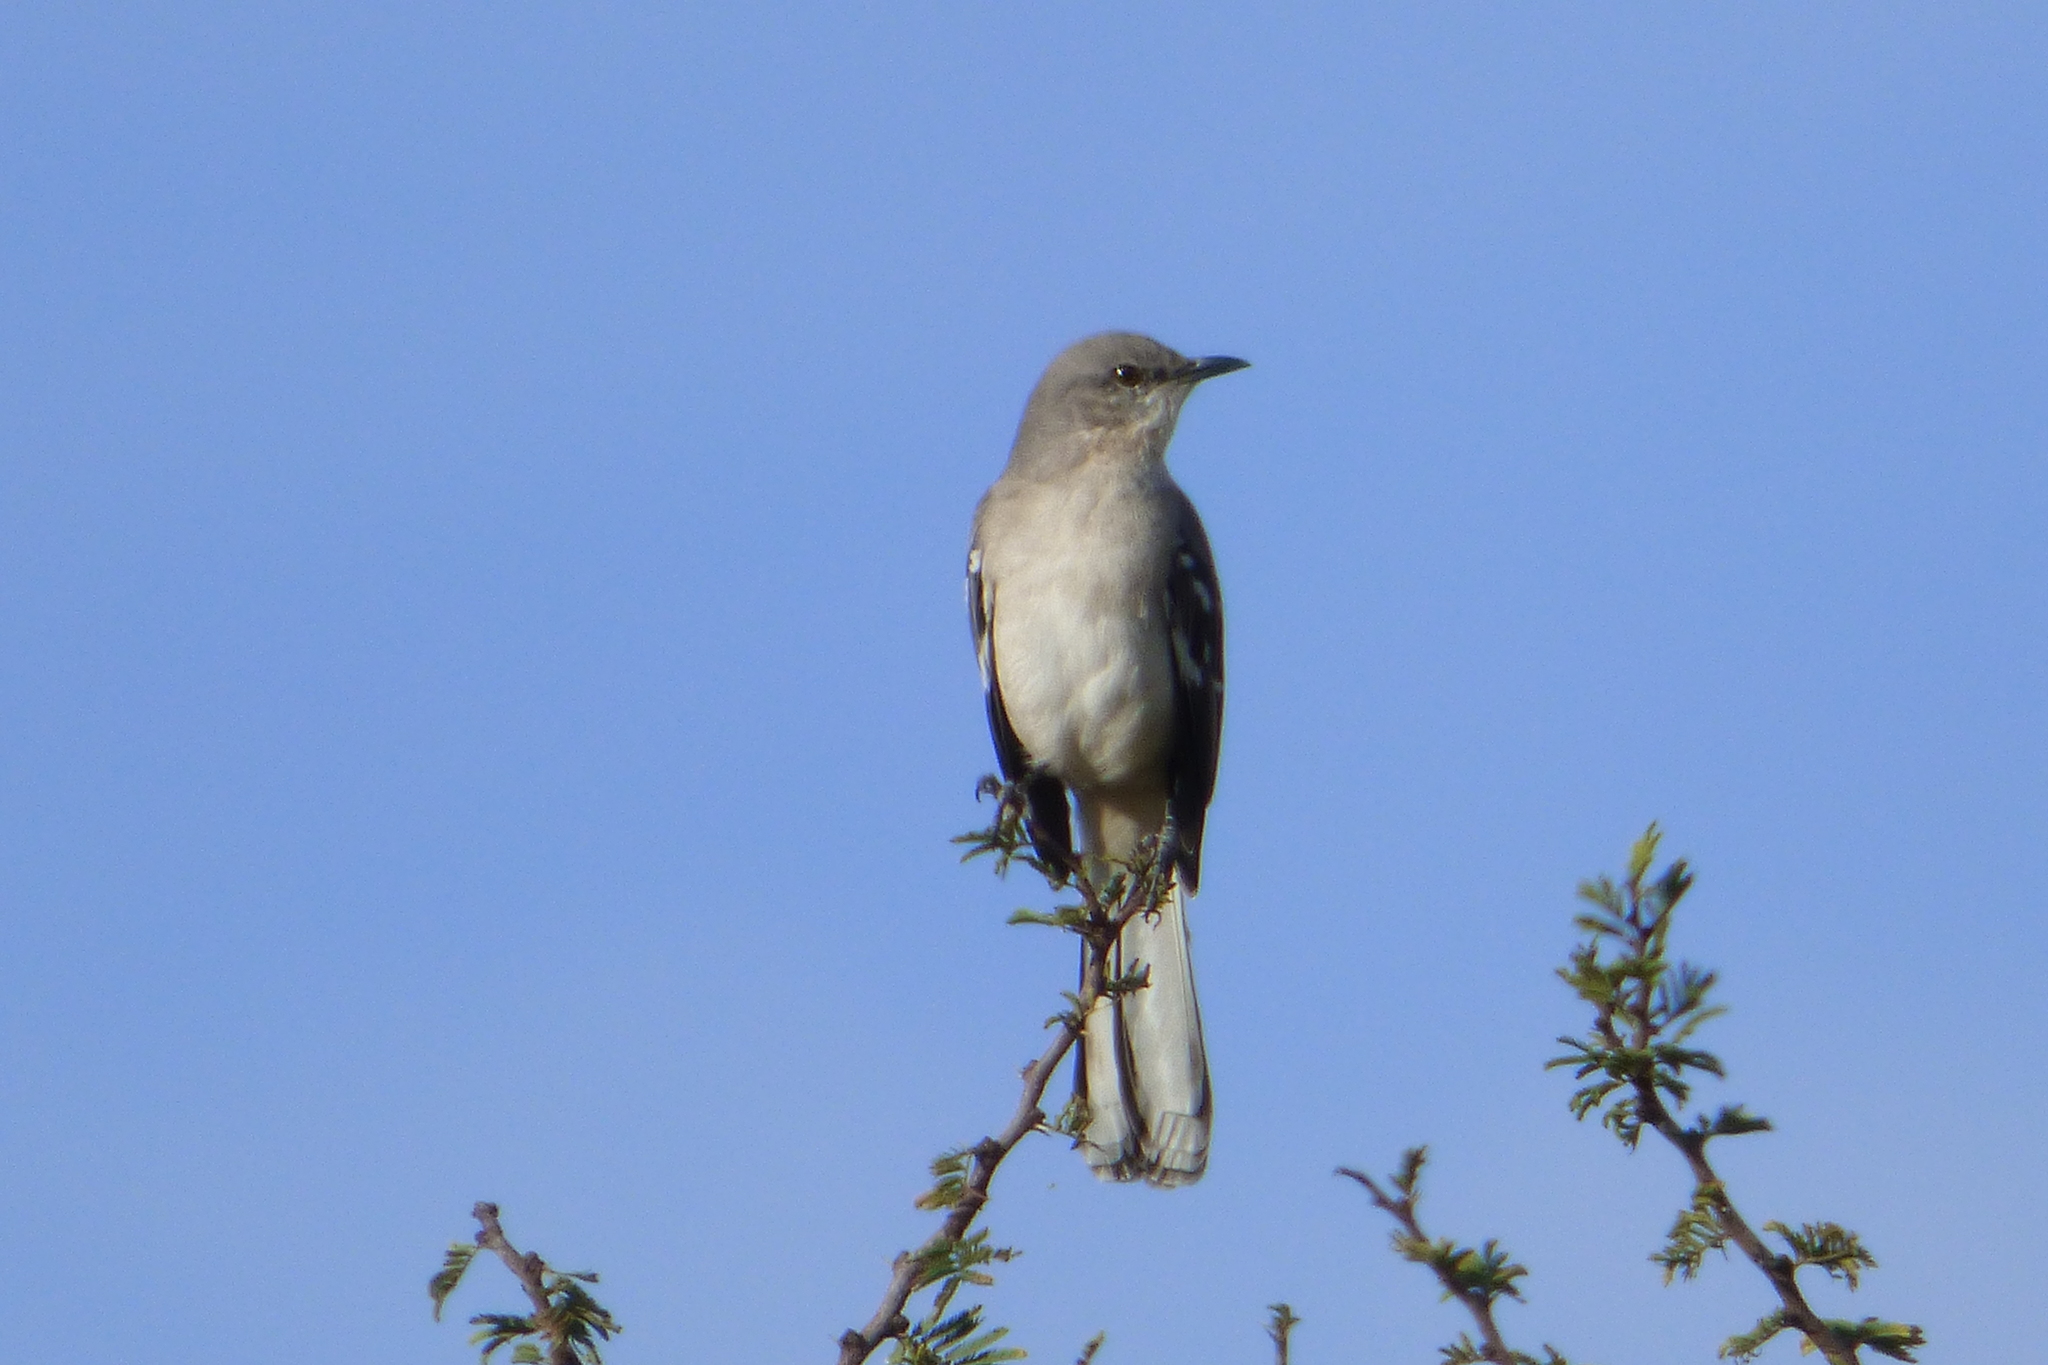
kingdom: Animalia
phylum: Chordata
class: Aves
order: Passeriformes
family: Mimidae
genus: Mimus
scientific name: Mimus polyglottos
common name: Northern mockingbird
